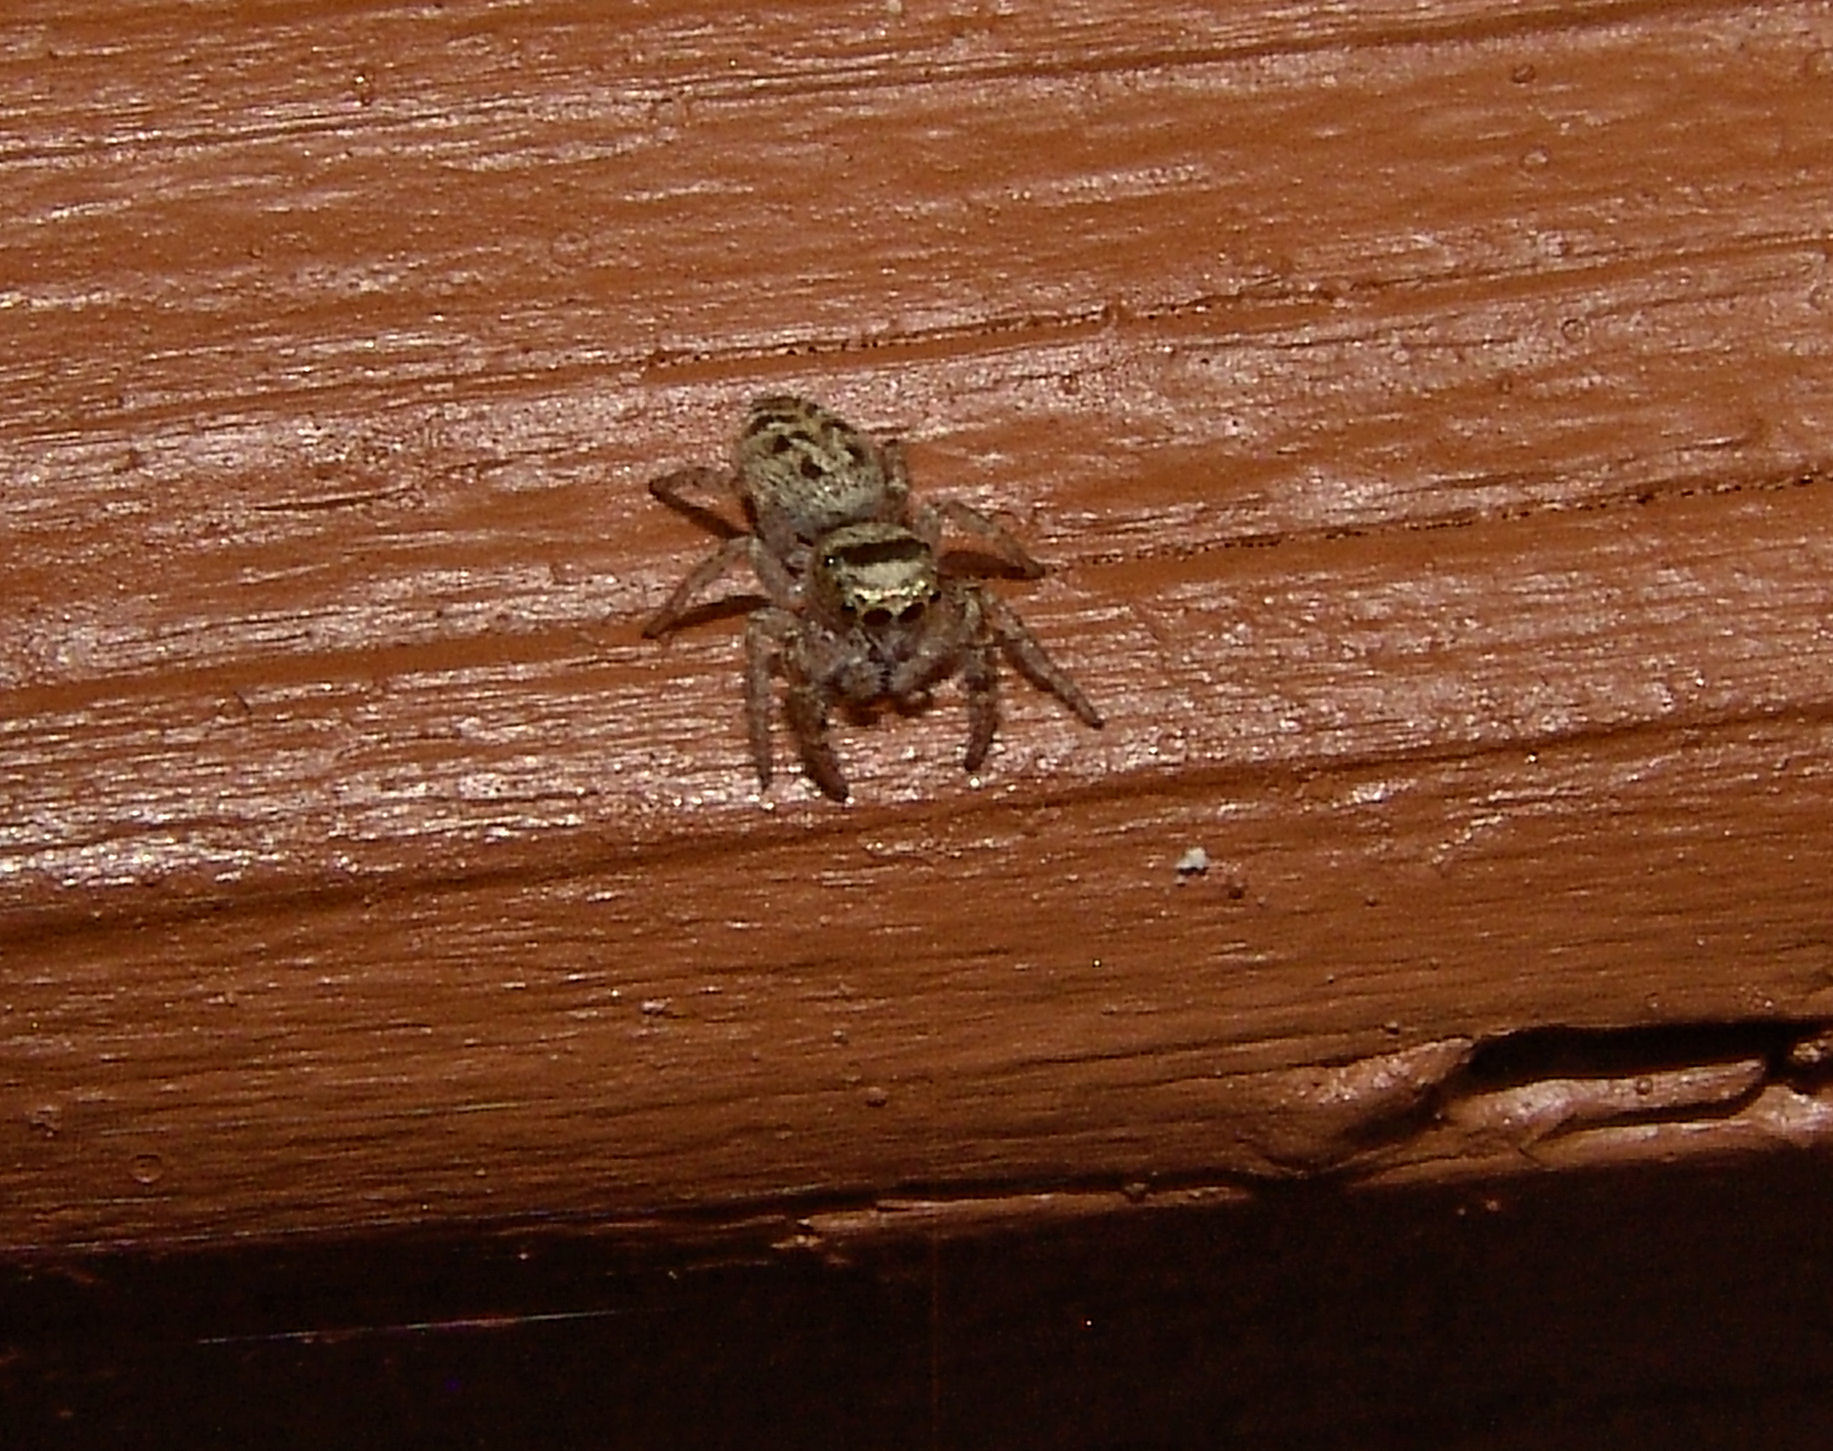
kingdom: Animalia
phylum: Arthropoda
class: Arachnida
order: Araneae
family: Salticidae
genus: Bagheera
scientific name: Bagheera prosper
